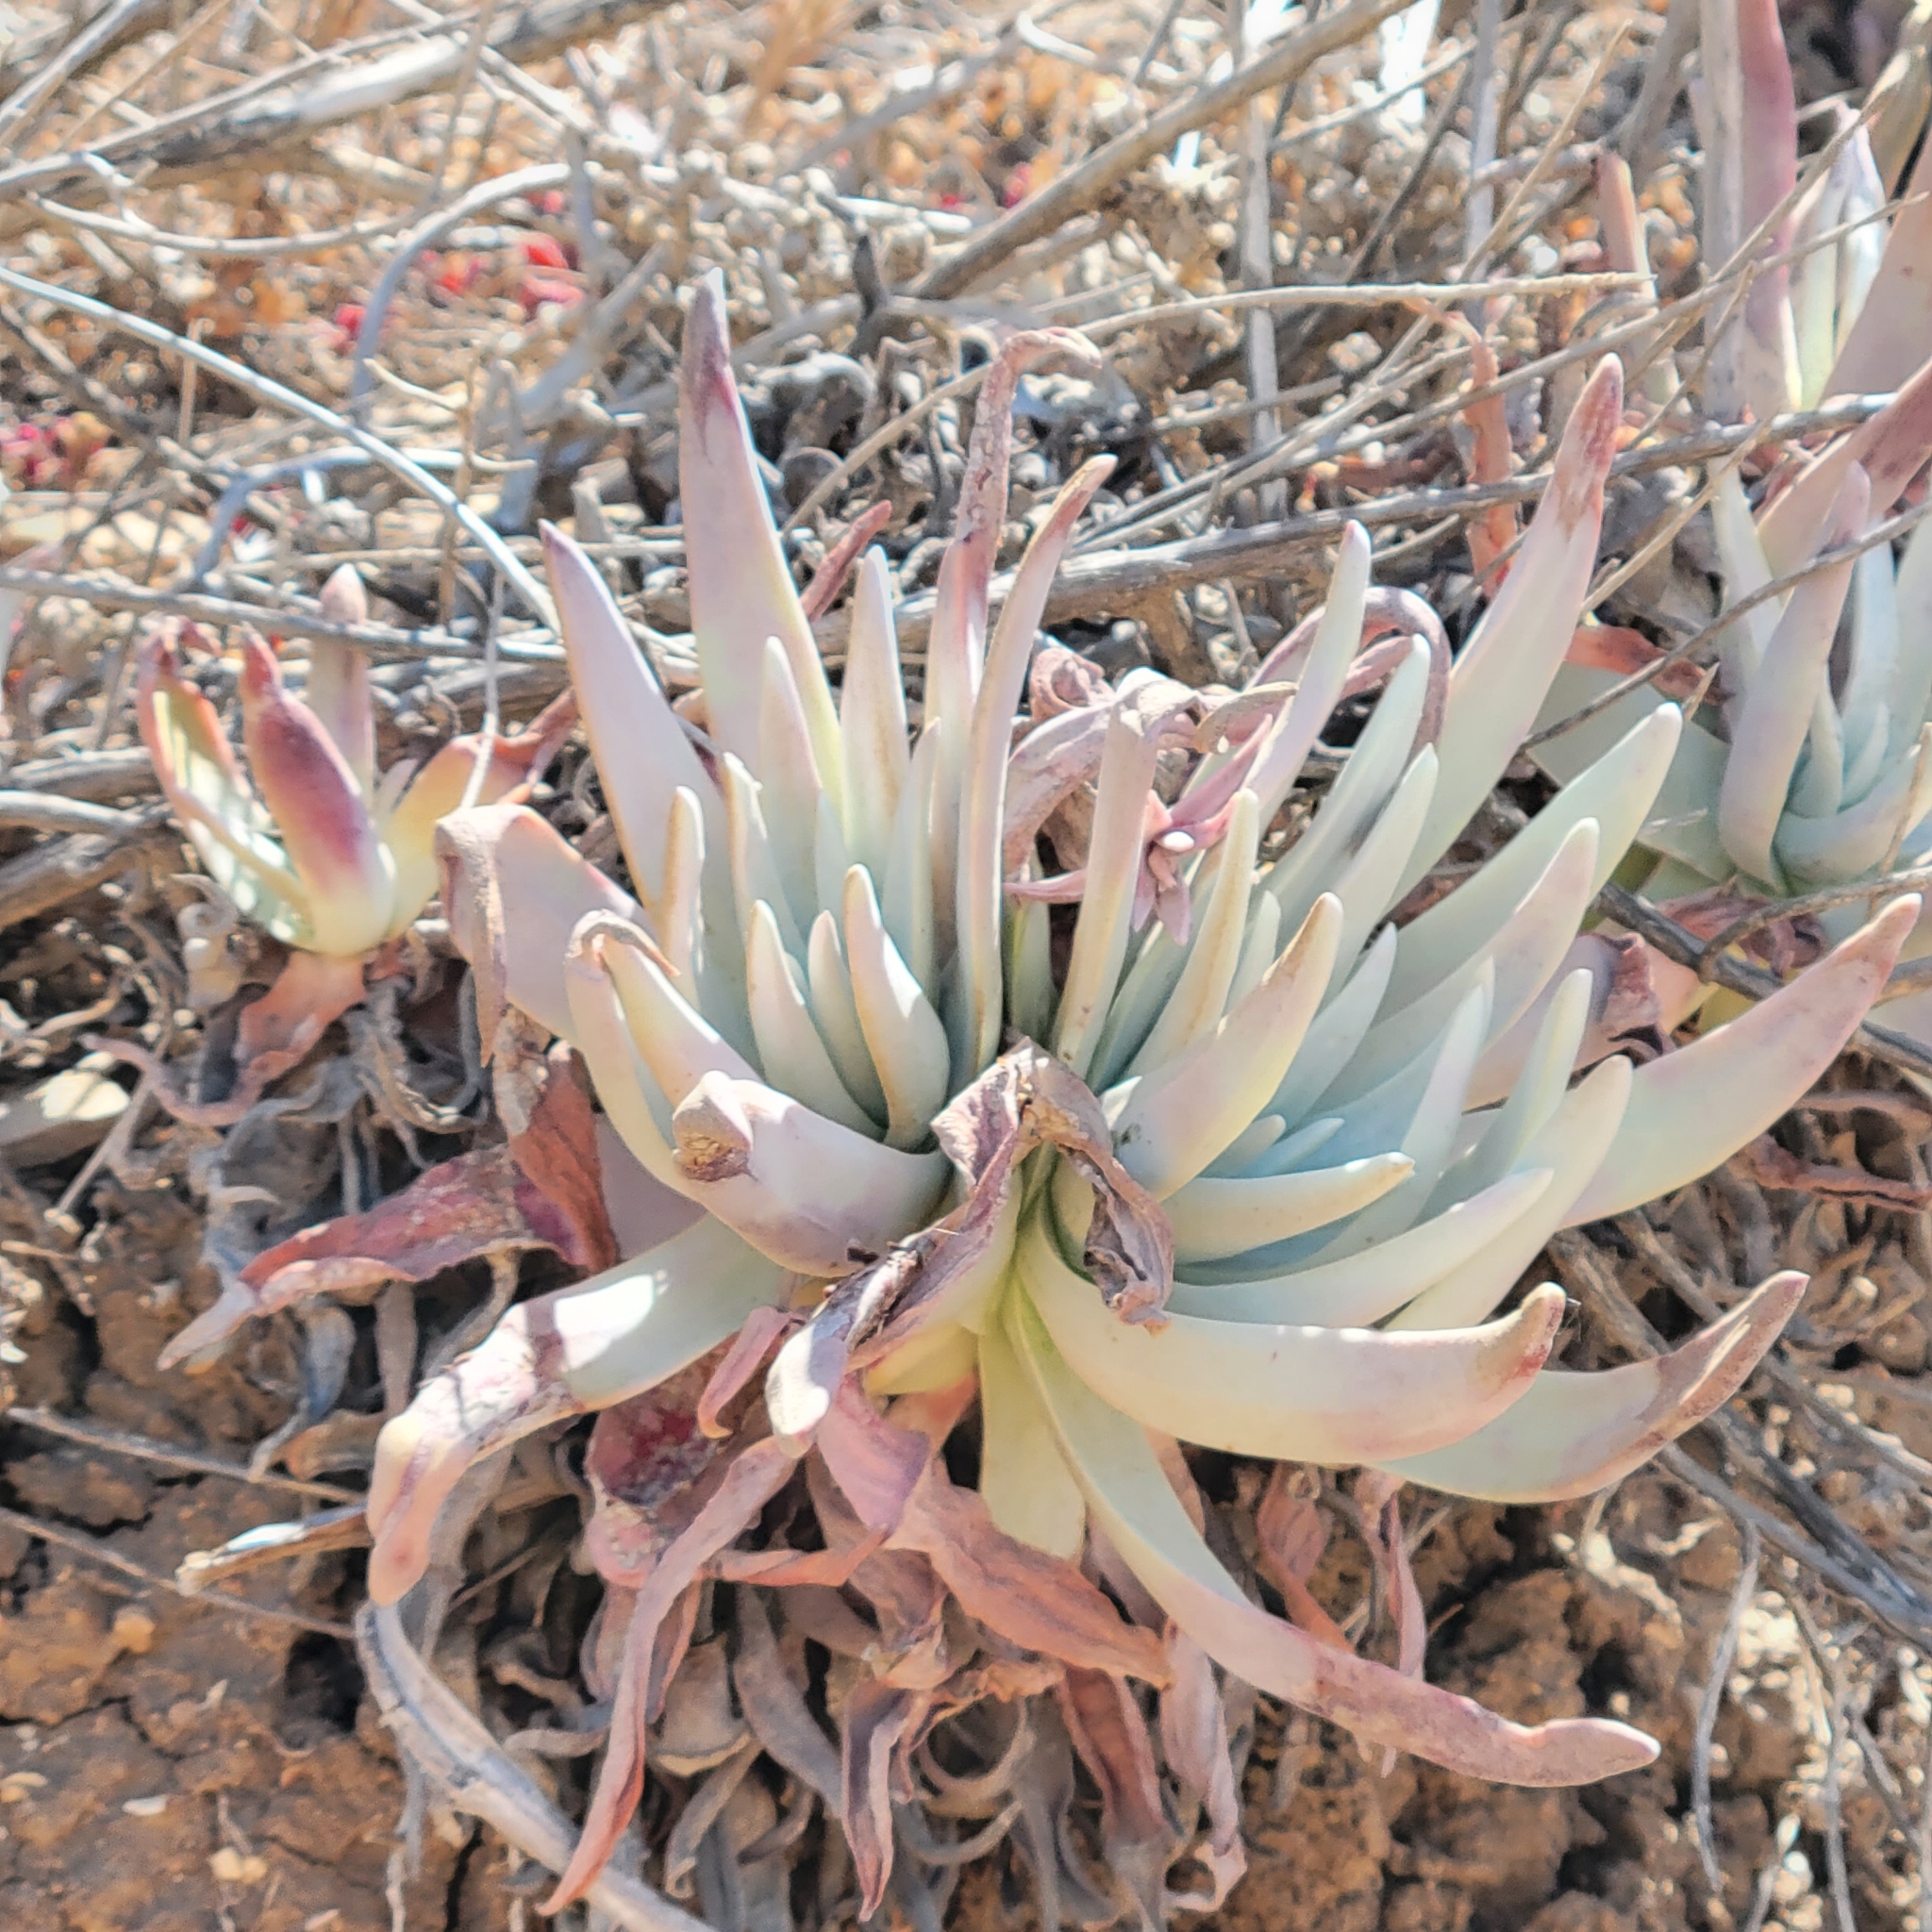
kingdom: Plantae
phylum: Tracheophyta
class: Magnoliopsida
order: Saxifragales
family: Crassulaceae
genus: Dudleya
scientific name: Dudleya virens
